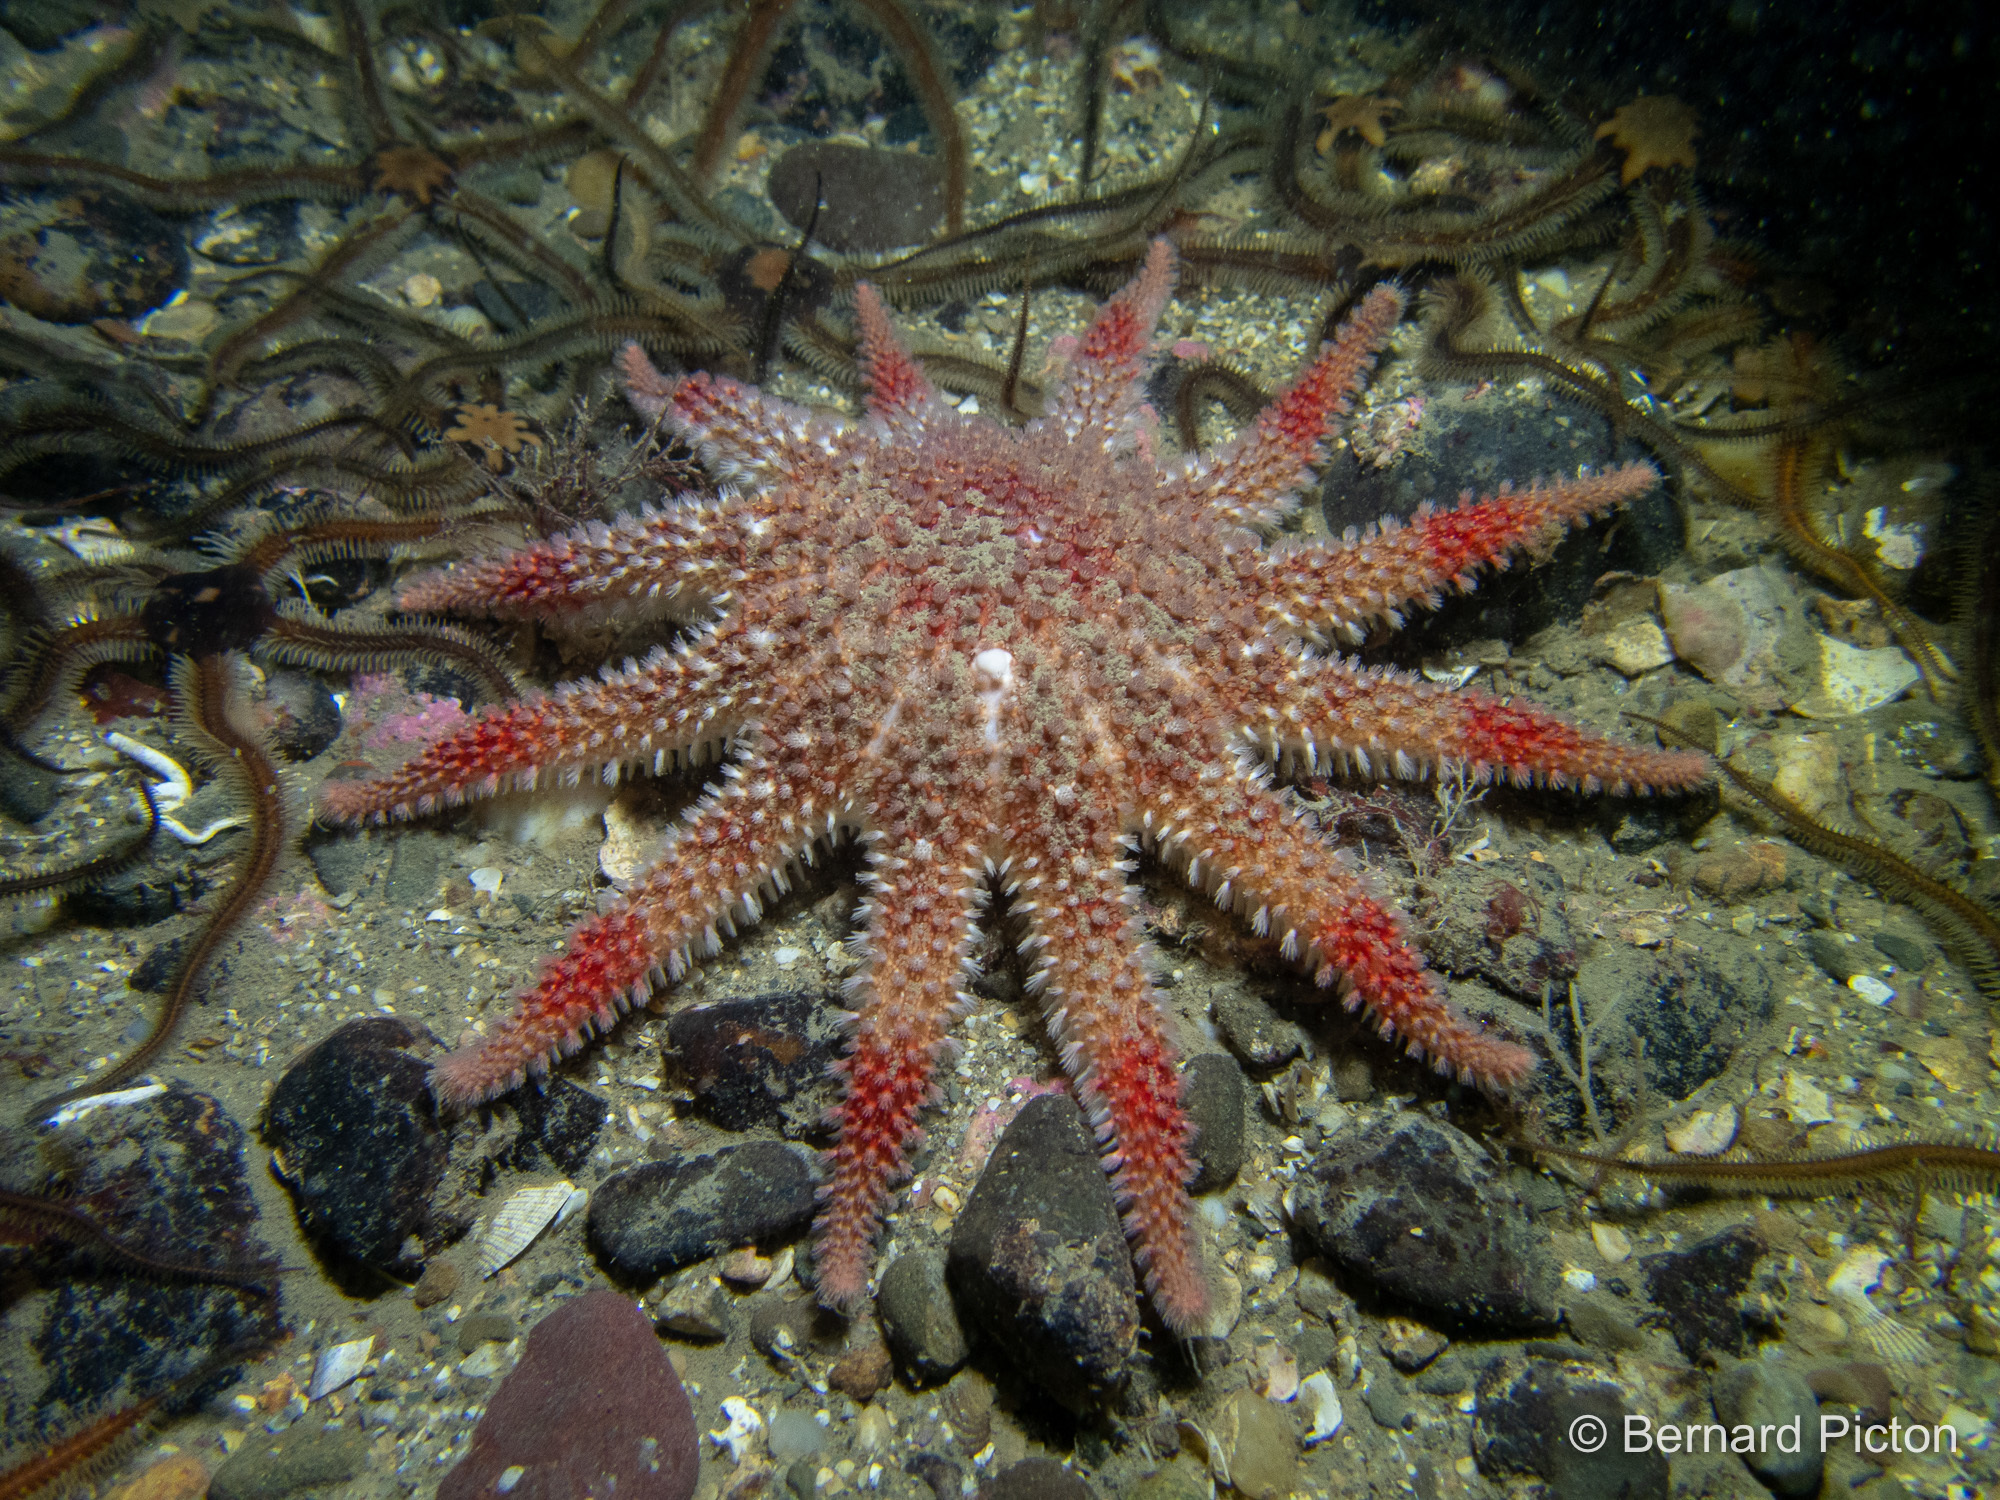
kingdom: Animalia
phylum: Echinodermata
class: Asteroidea
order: Valvatida
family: Solasteridae
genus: Crossaster
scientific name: Crossaster papposus
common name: Common sun star
